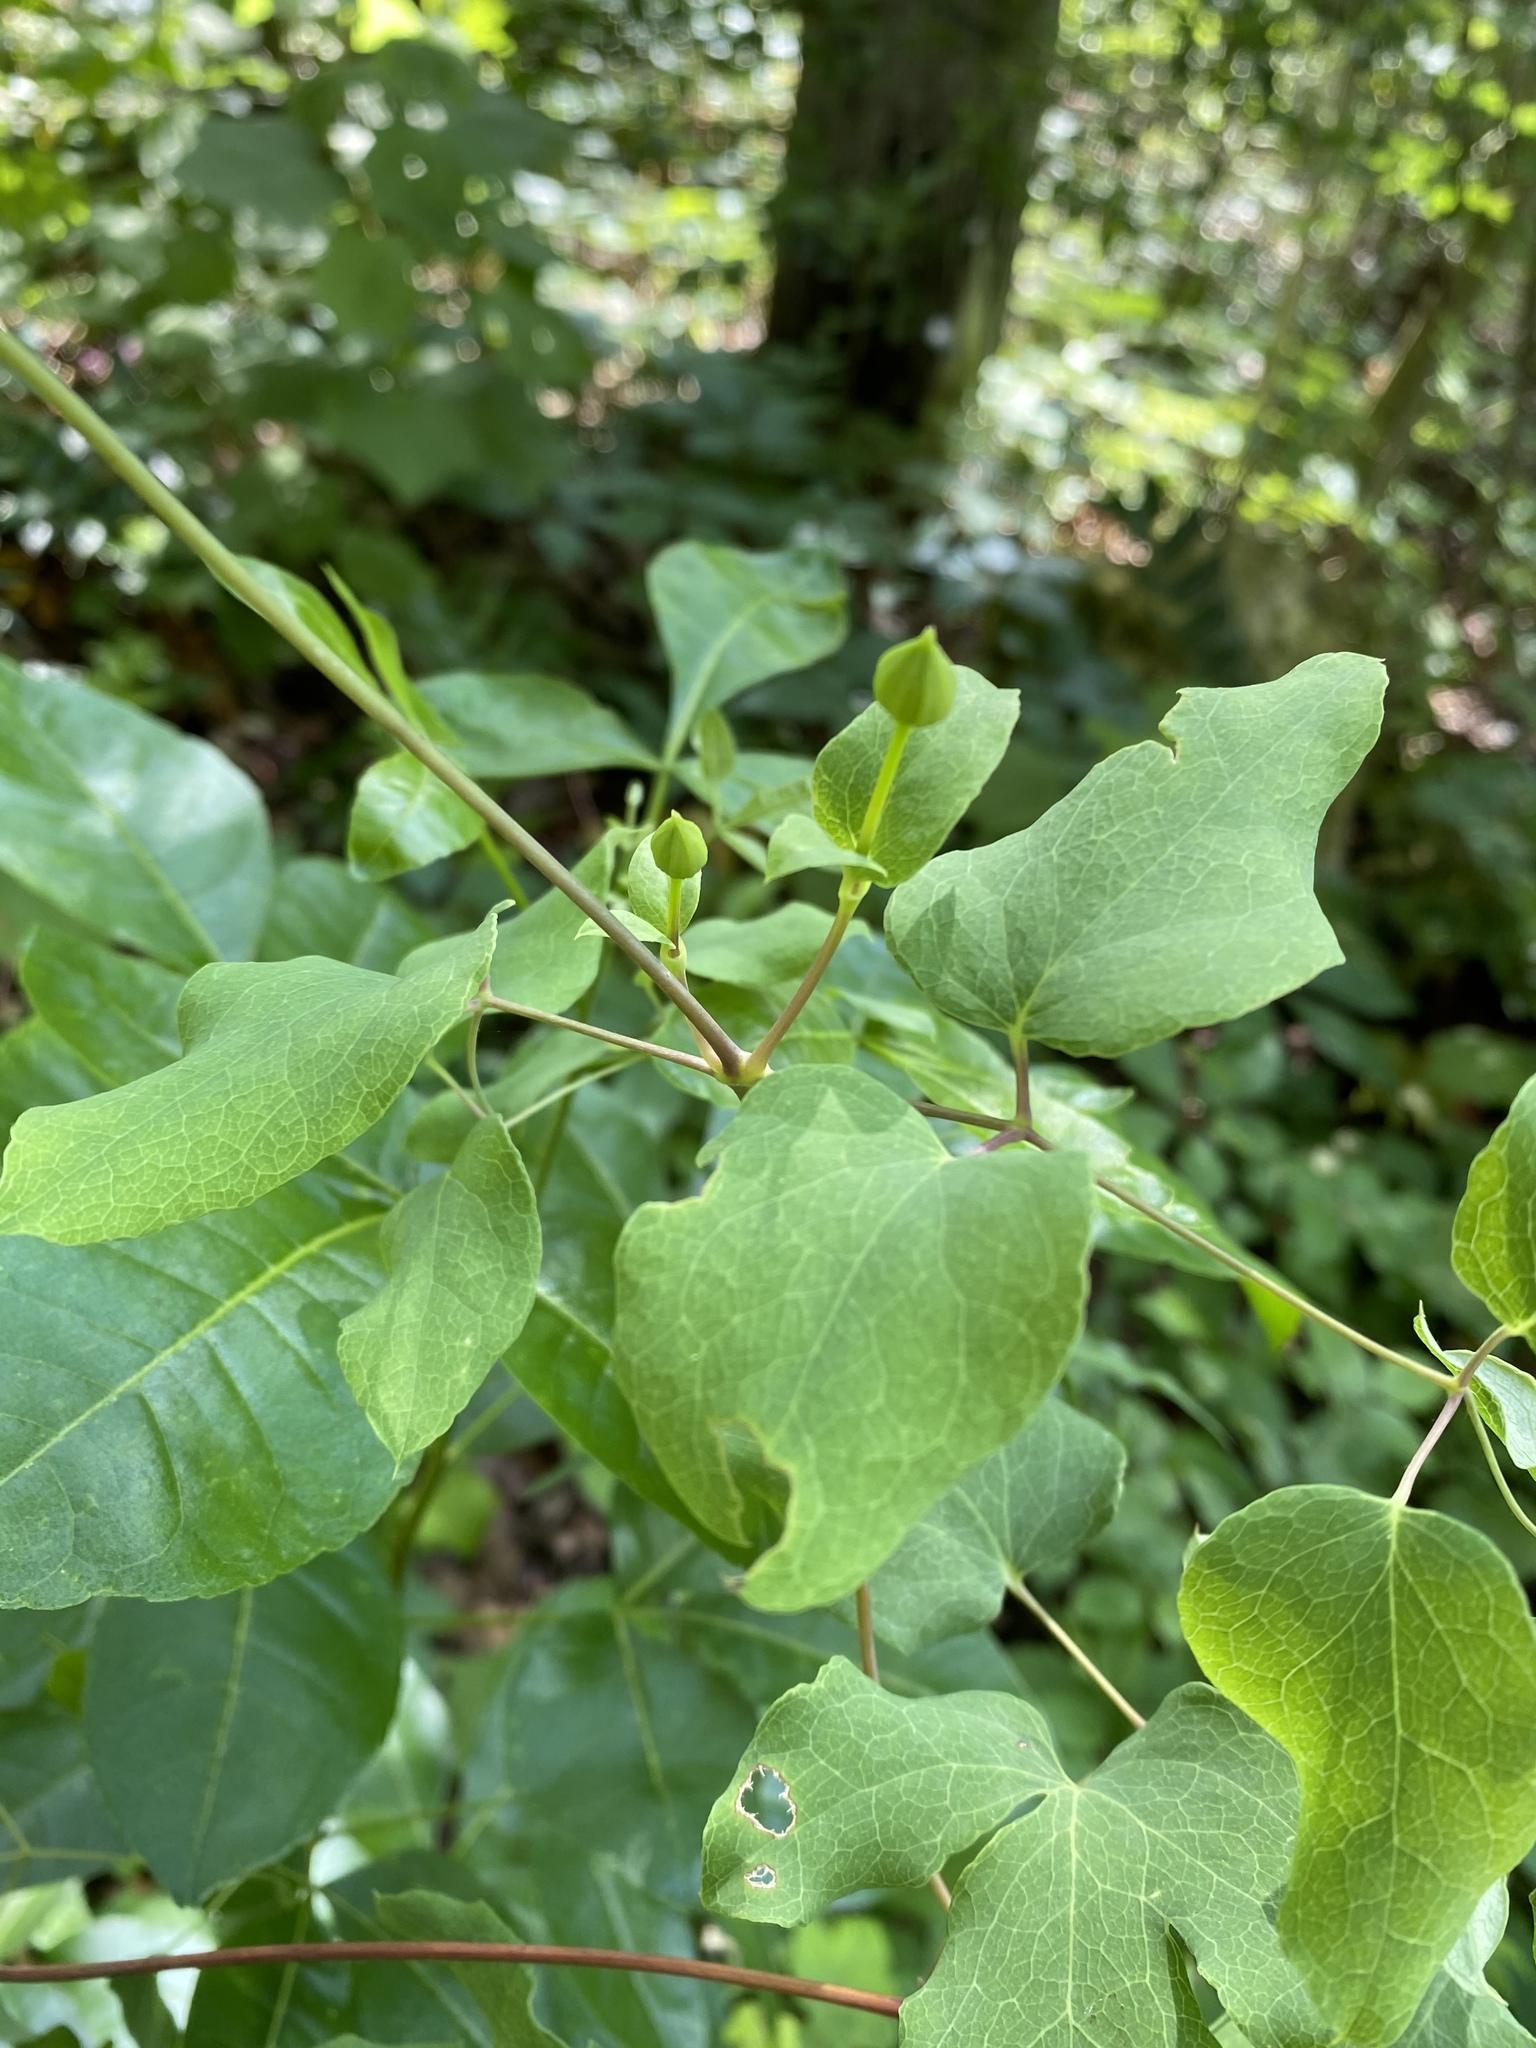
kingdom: Plantae
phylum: Tracheophyta
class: Magnoliopsida
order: Ranunculales
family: Ranunculaceae
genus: Clematis
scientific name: Clematis texensis
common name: Crimson clematis
